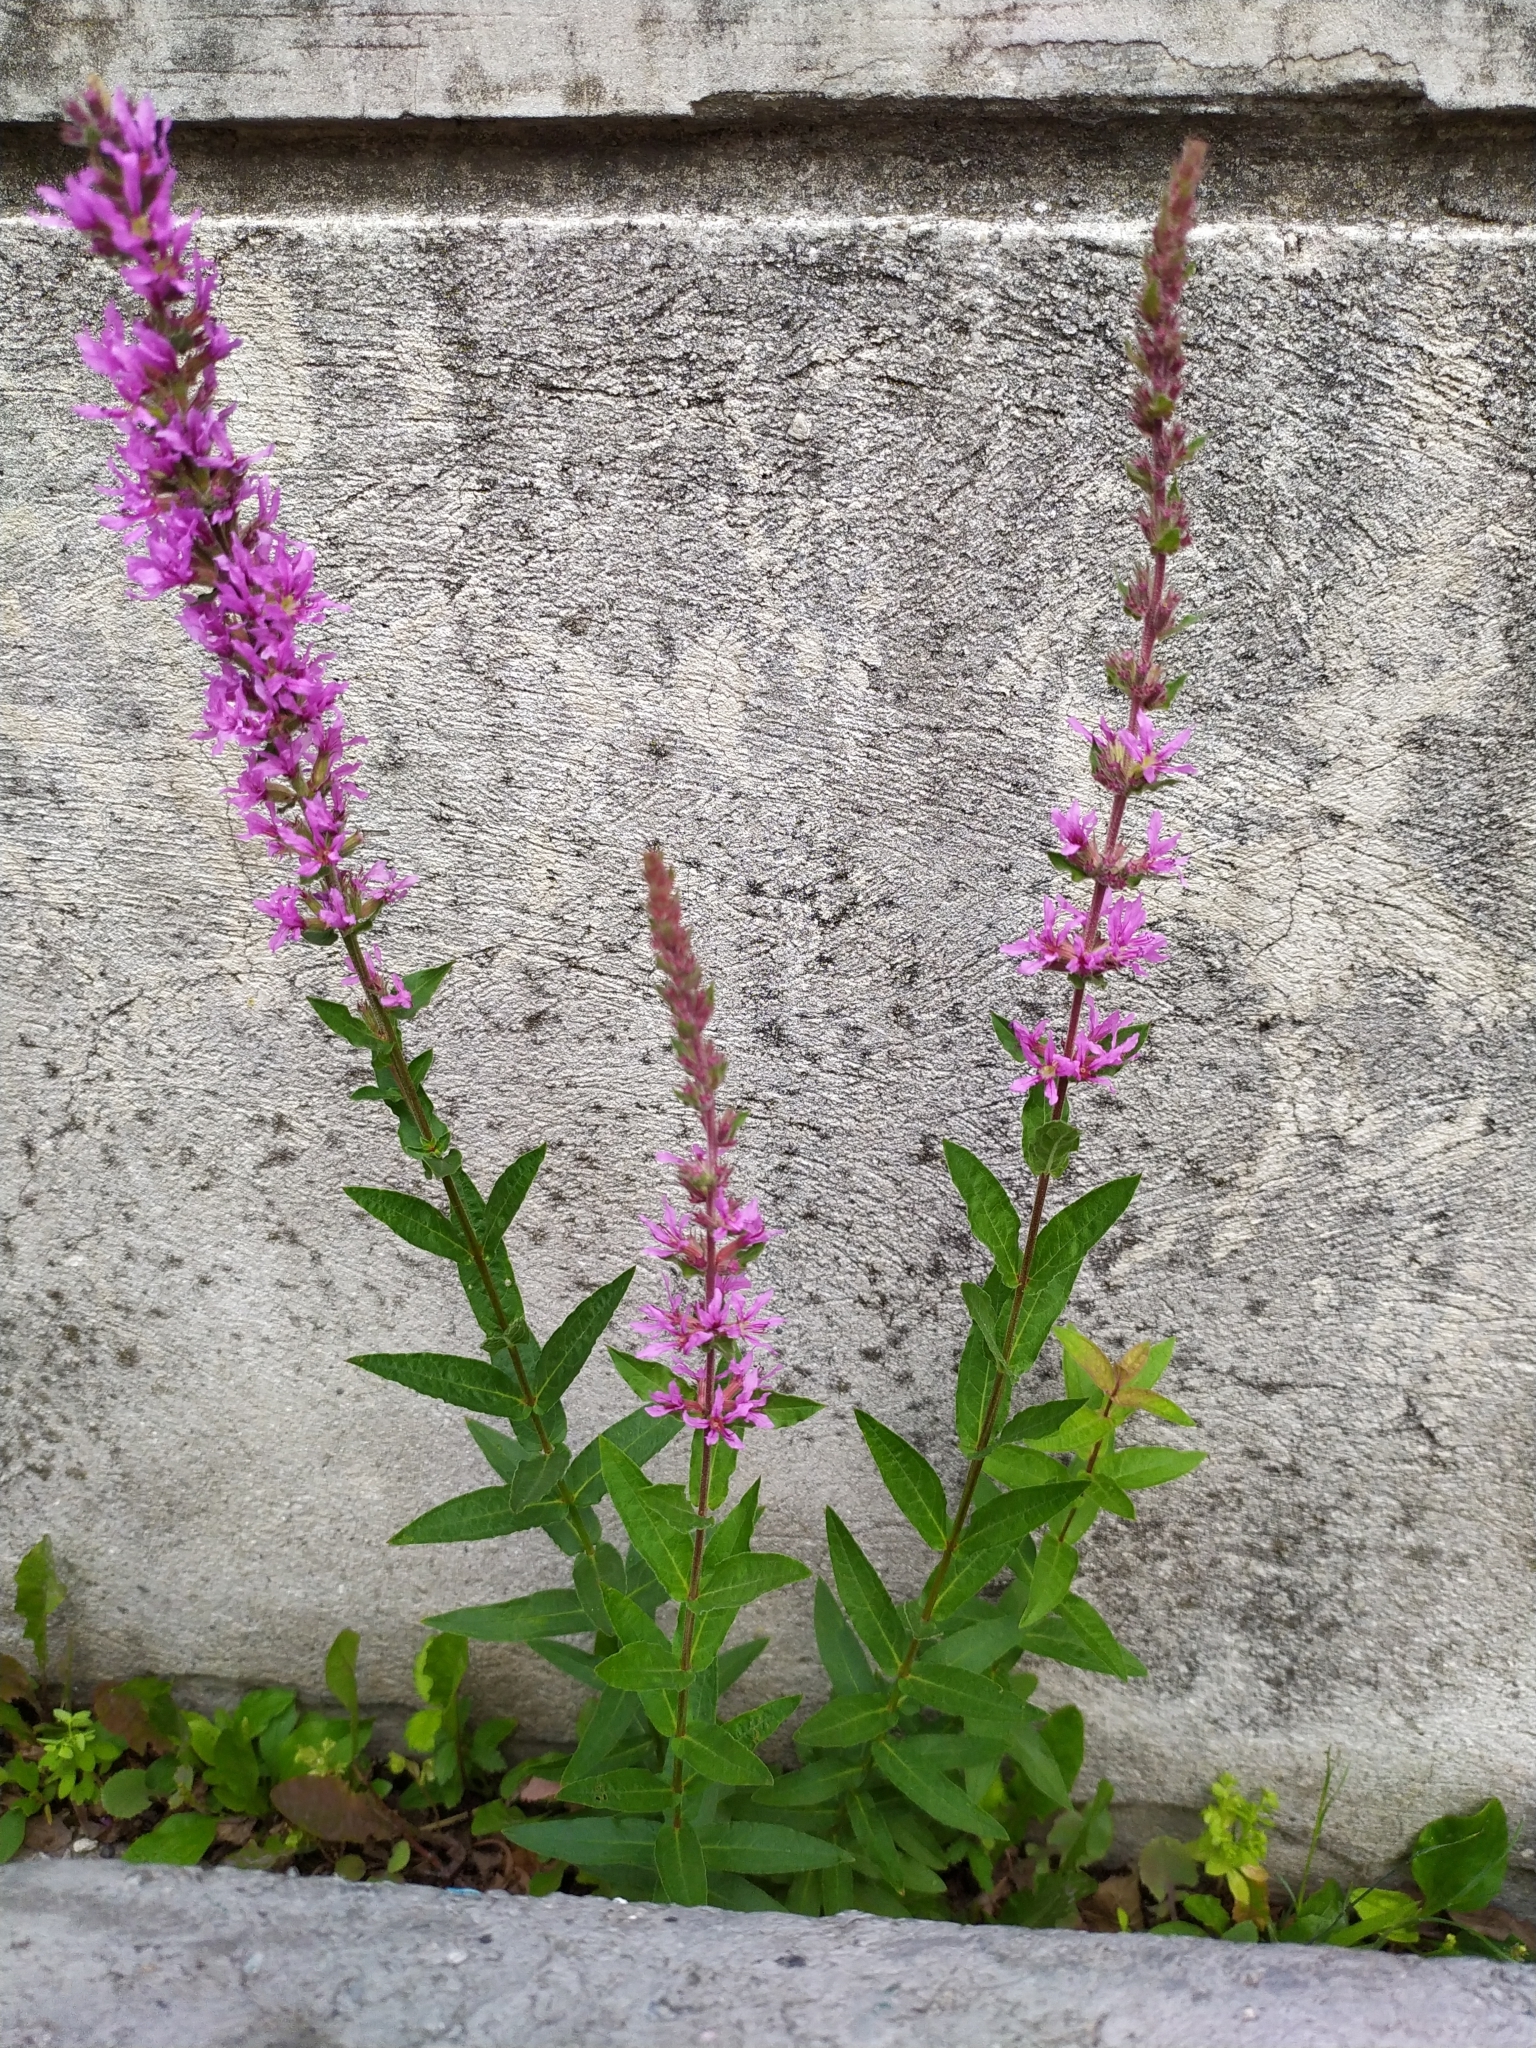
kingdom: Plantae
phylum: Tracheophyta
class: Magnoliopsida
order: Myrtales
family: Lythraceae
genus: Lythrum
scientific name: Lythrum salicaria
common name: Purple loosestrife
